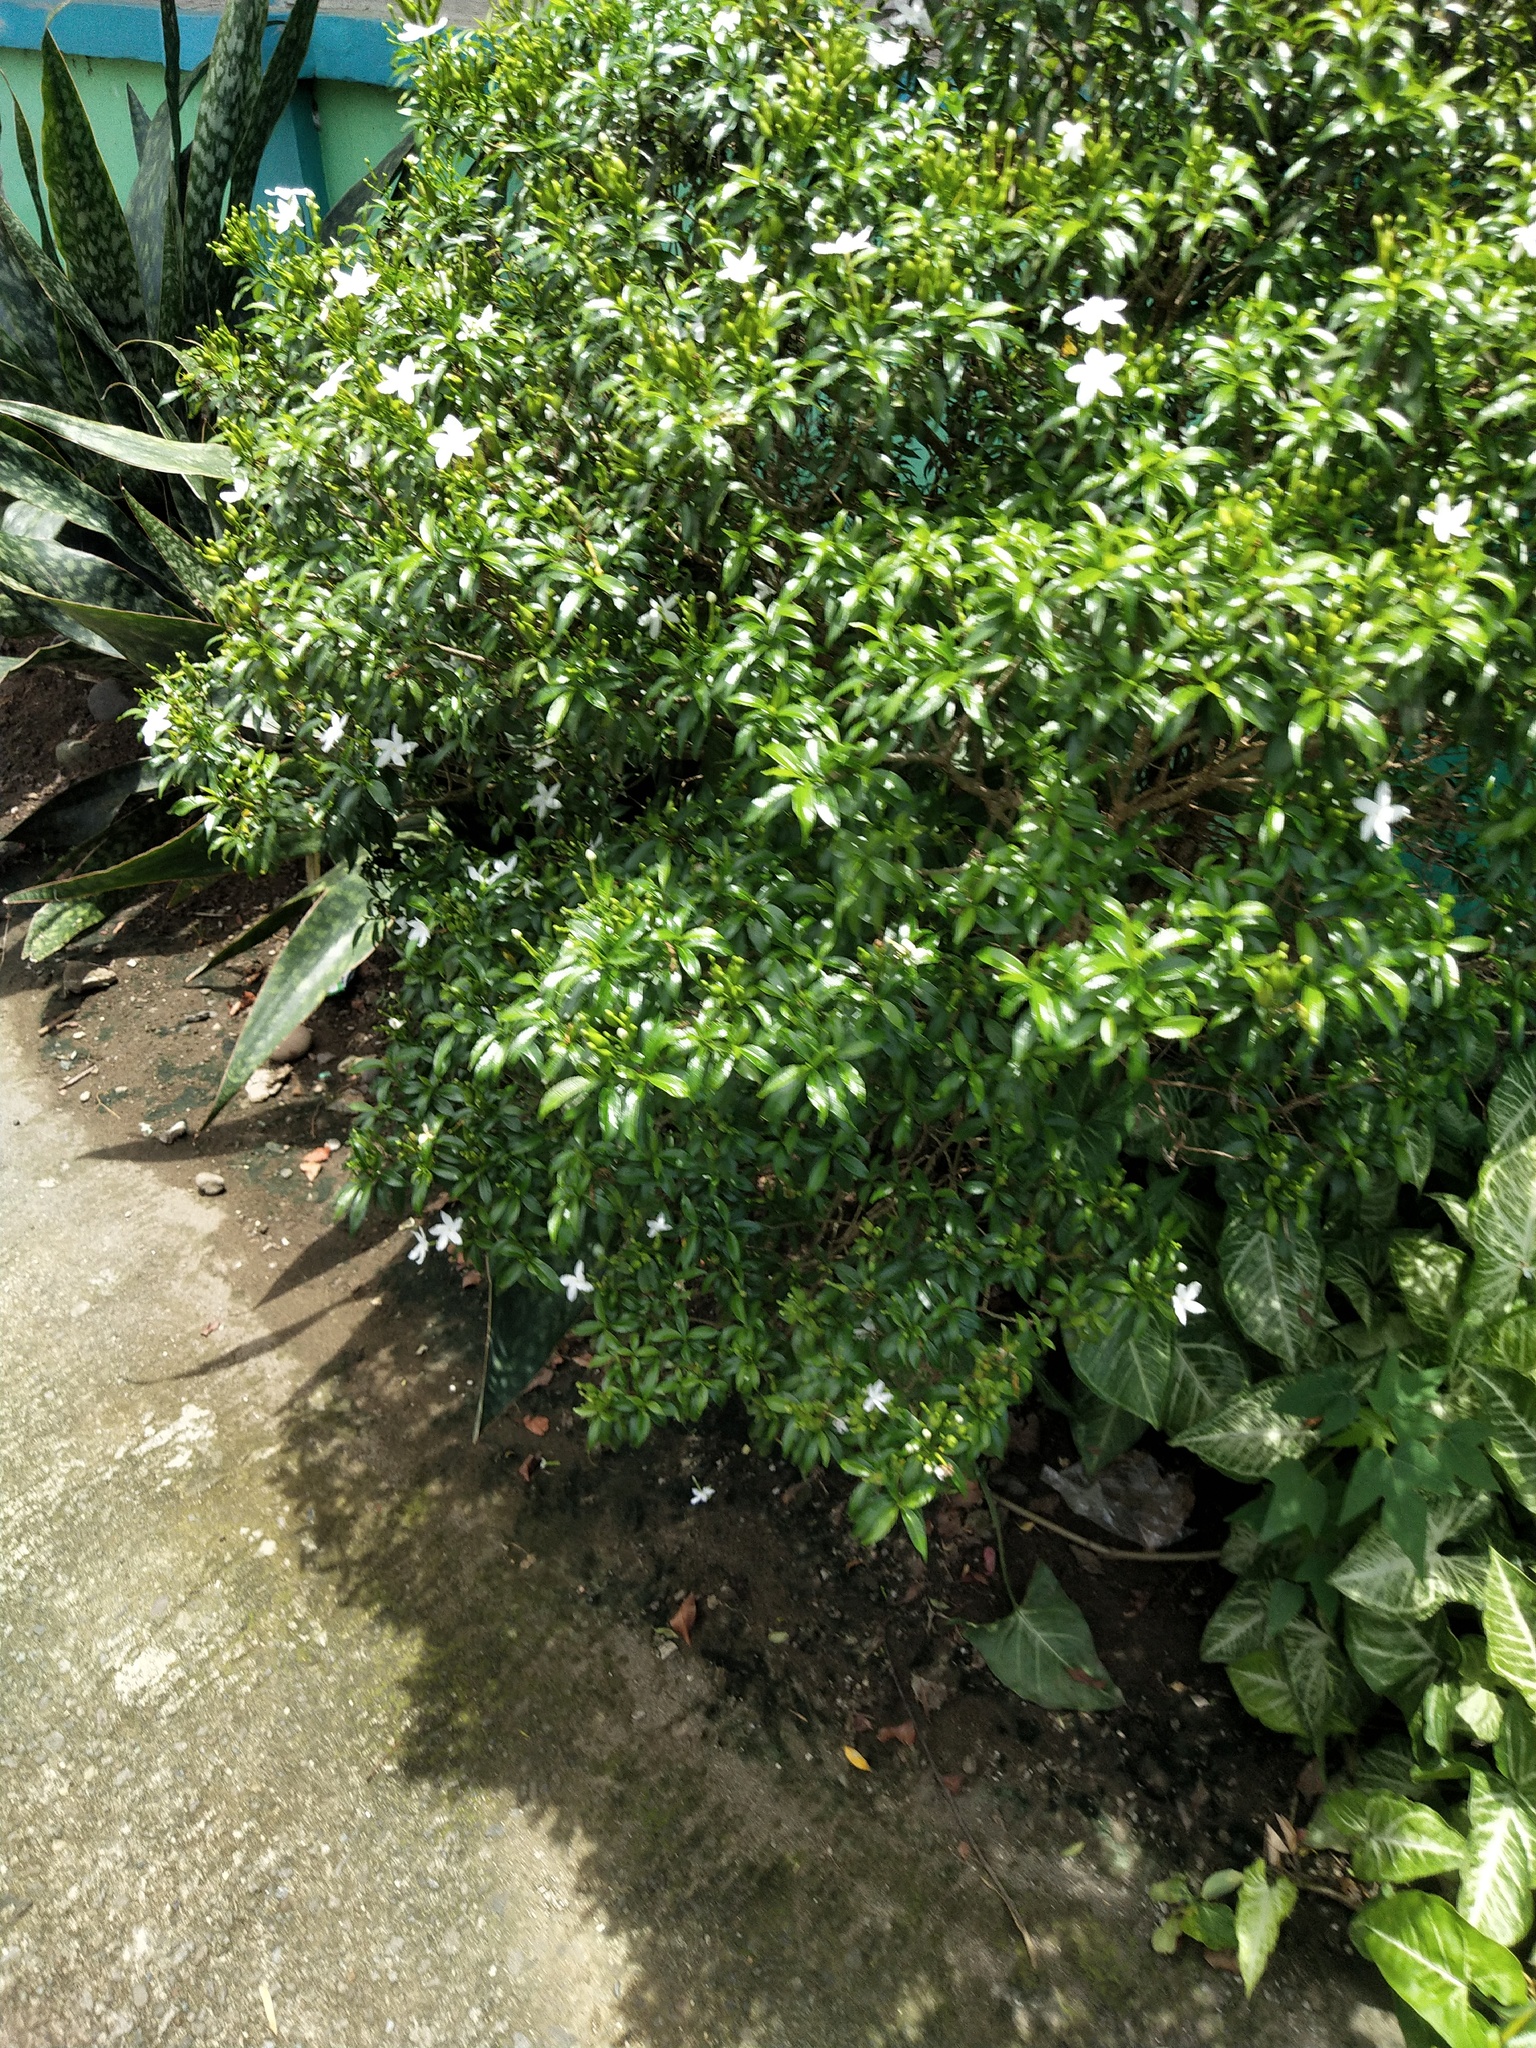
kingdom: Plantae
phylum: Tracheophyta
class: Magnoliopsida
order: Gentianales
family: Apocynaceae
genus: Tabernaemontana
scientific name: Tabernaemontana corymbosa
